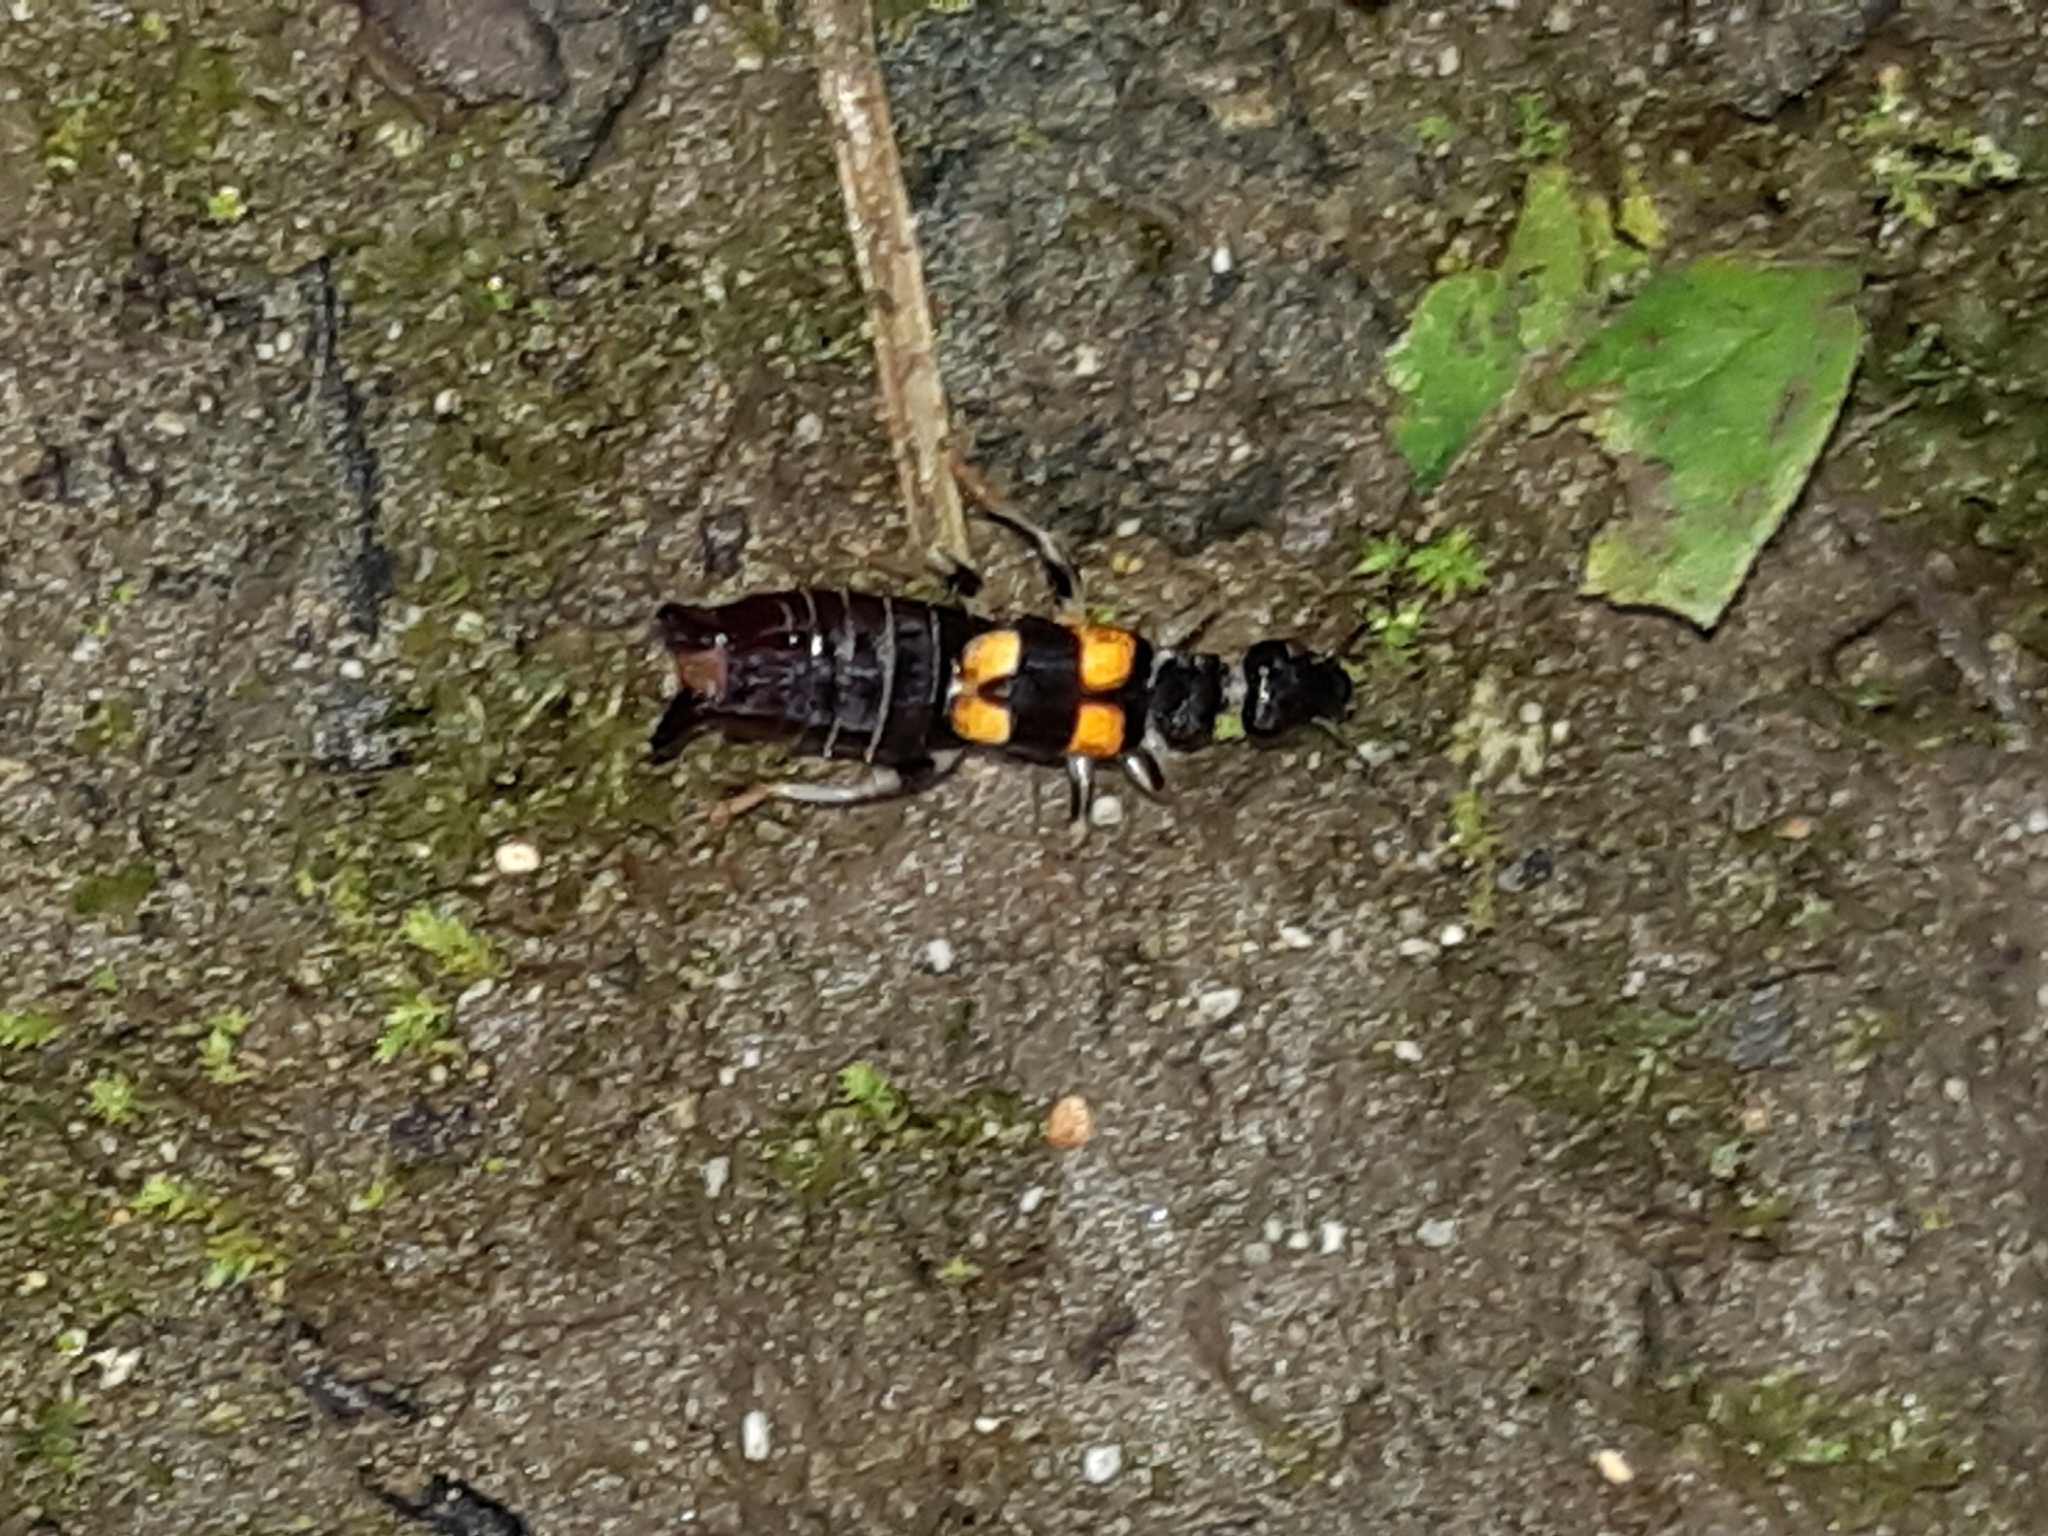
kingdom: Animalia
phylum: Arthropoda
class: Insecta
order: Dermaptera
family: Anisolabididae
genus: Carcinophora
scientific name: Carcinophora percheroni
